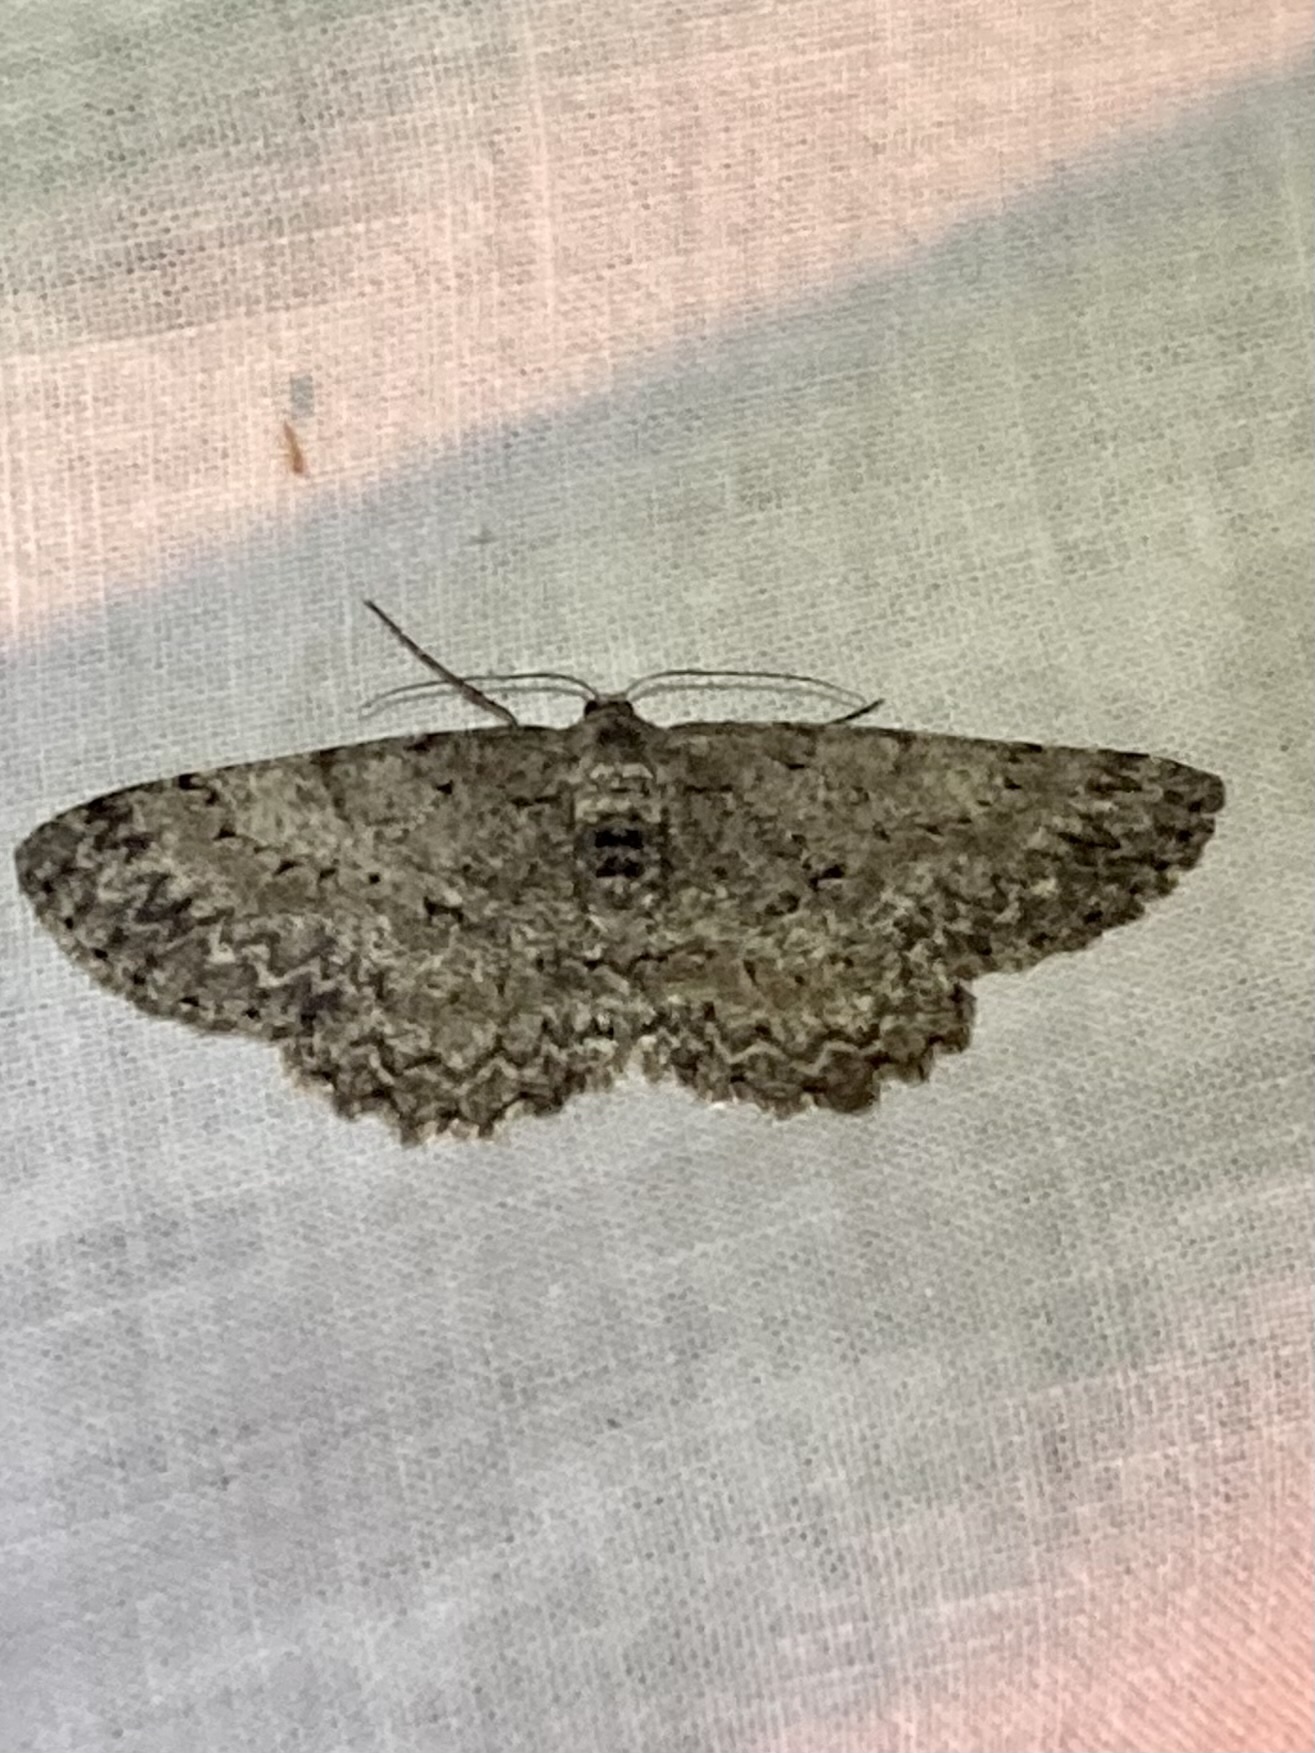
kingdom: Animalia
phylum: Arthropoda
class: Insecta
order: Lepidoptera
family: Geometridae
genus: Hypomecis
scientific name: Hypomecis punctinalis
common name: Pale oak beauty
